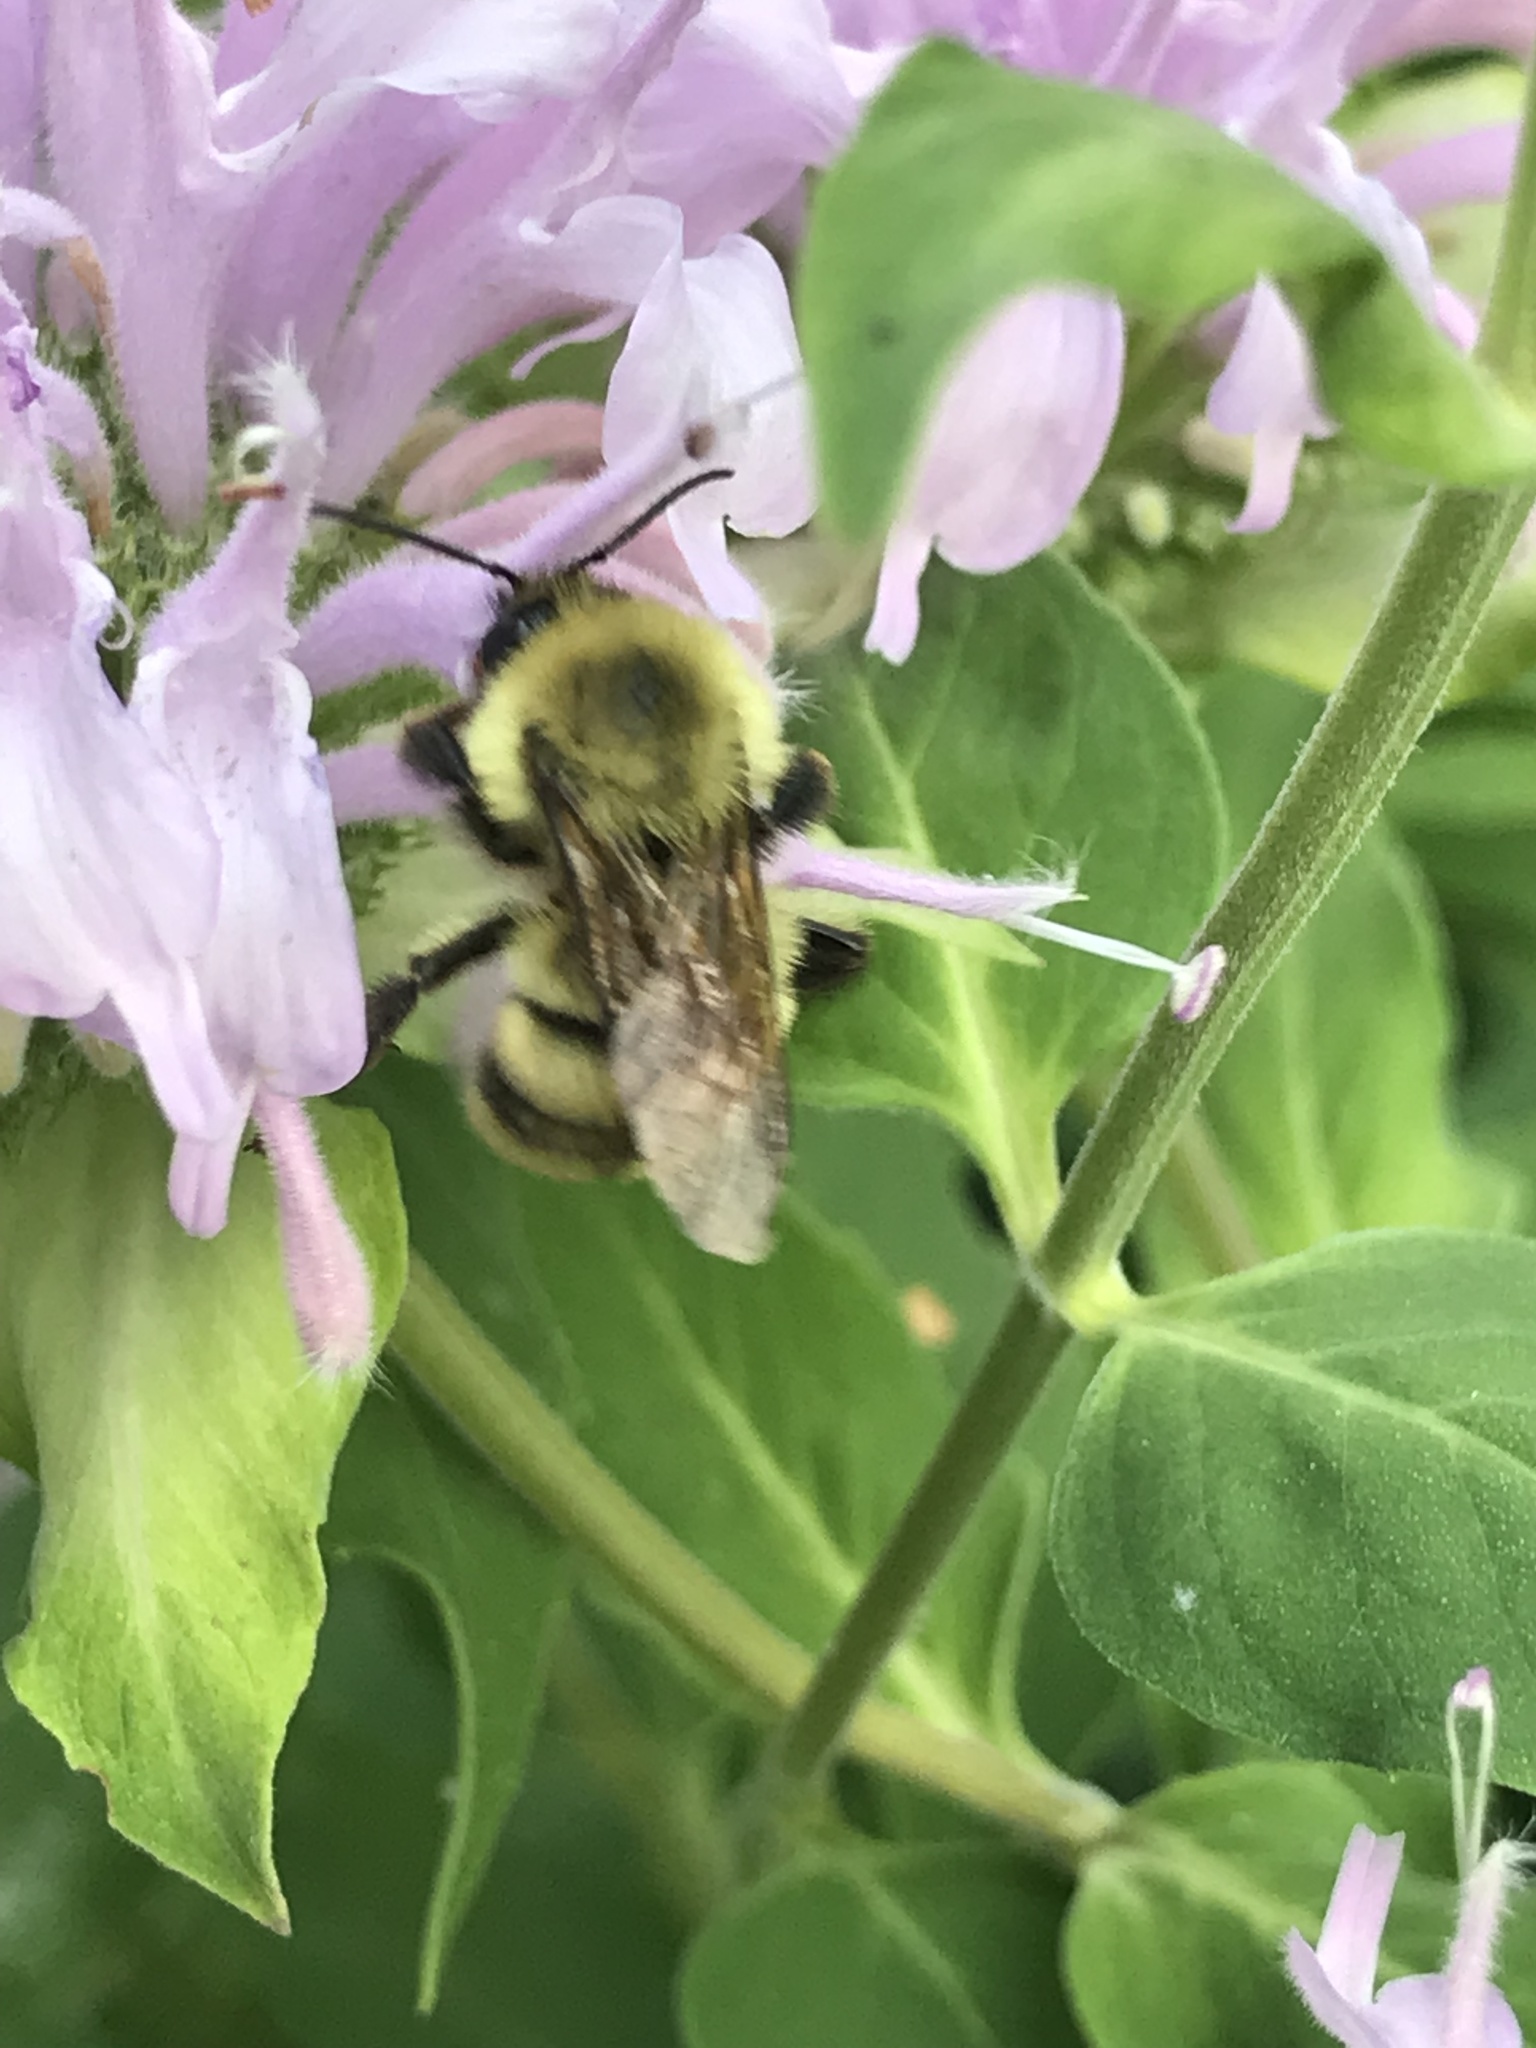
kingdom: Animalia
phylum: Arthropoda
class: Insecta
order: Hymenoptera
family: Apidae
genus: Bombus
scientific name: Bombus bimaculatus
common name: Two-spotted bumble bee
